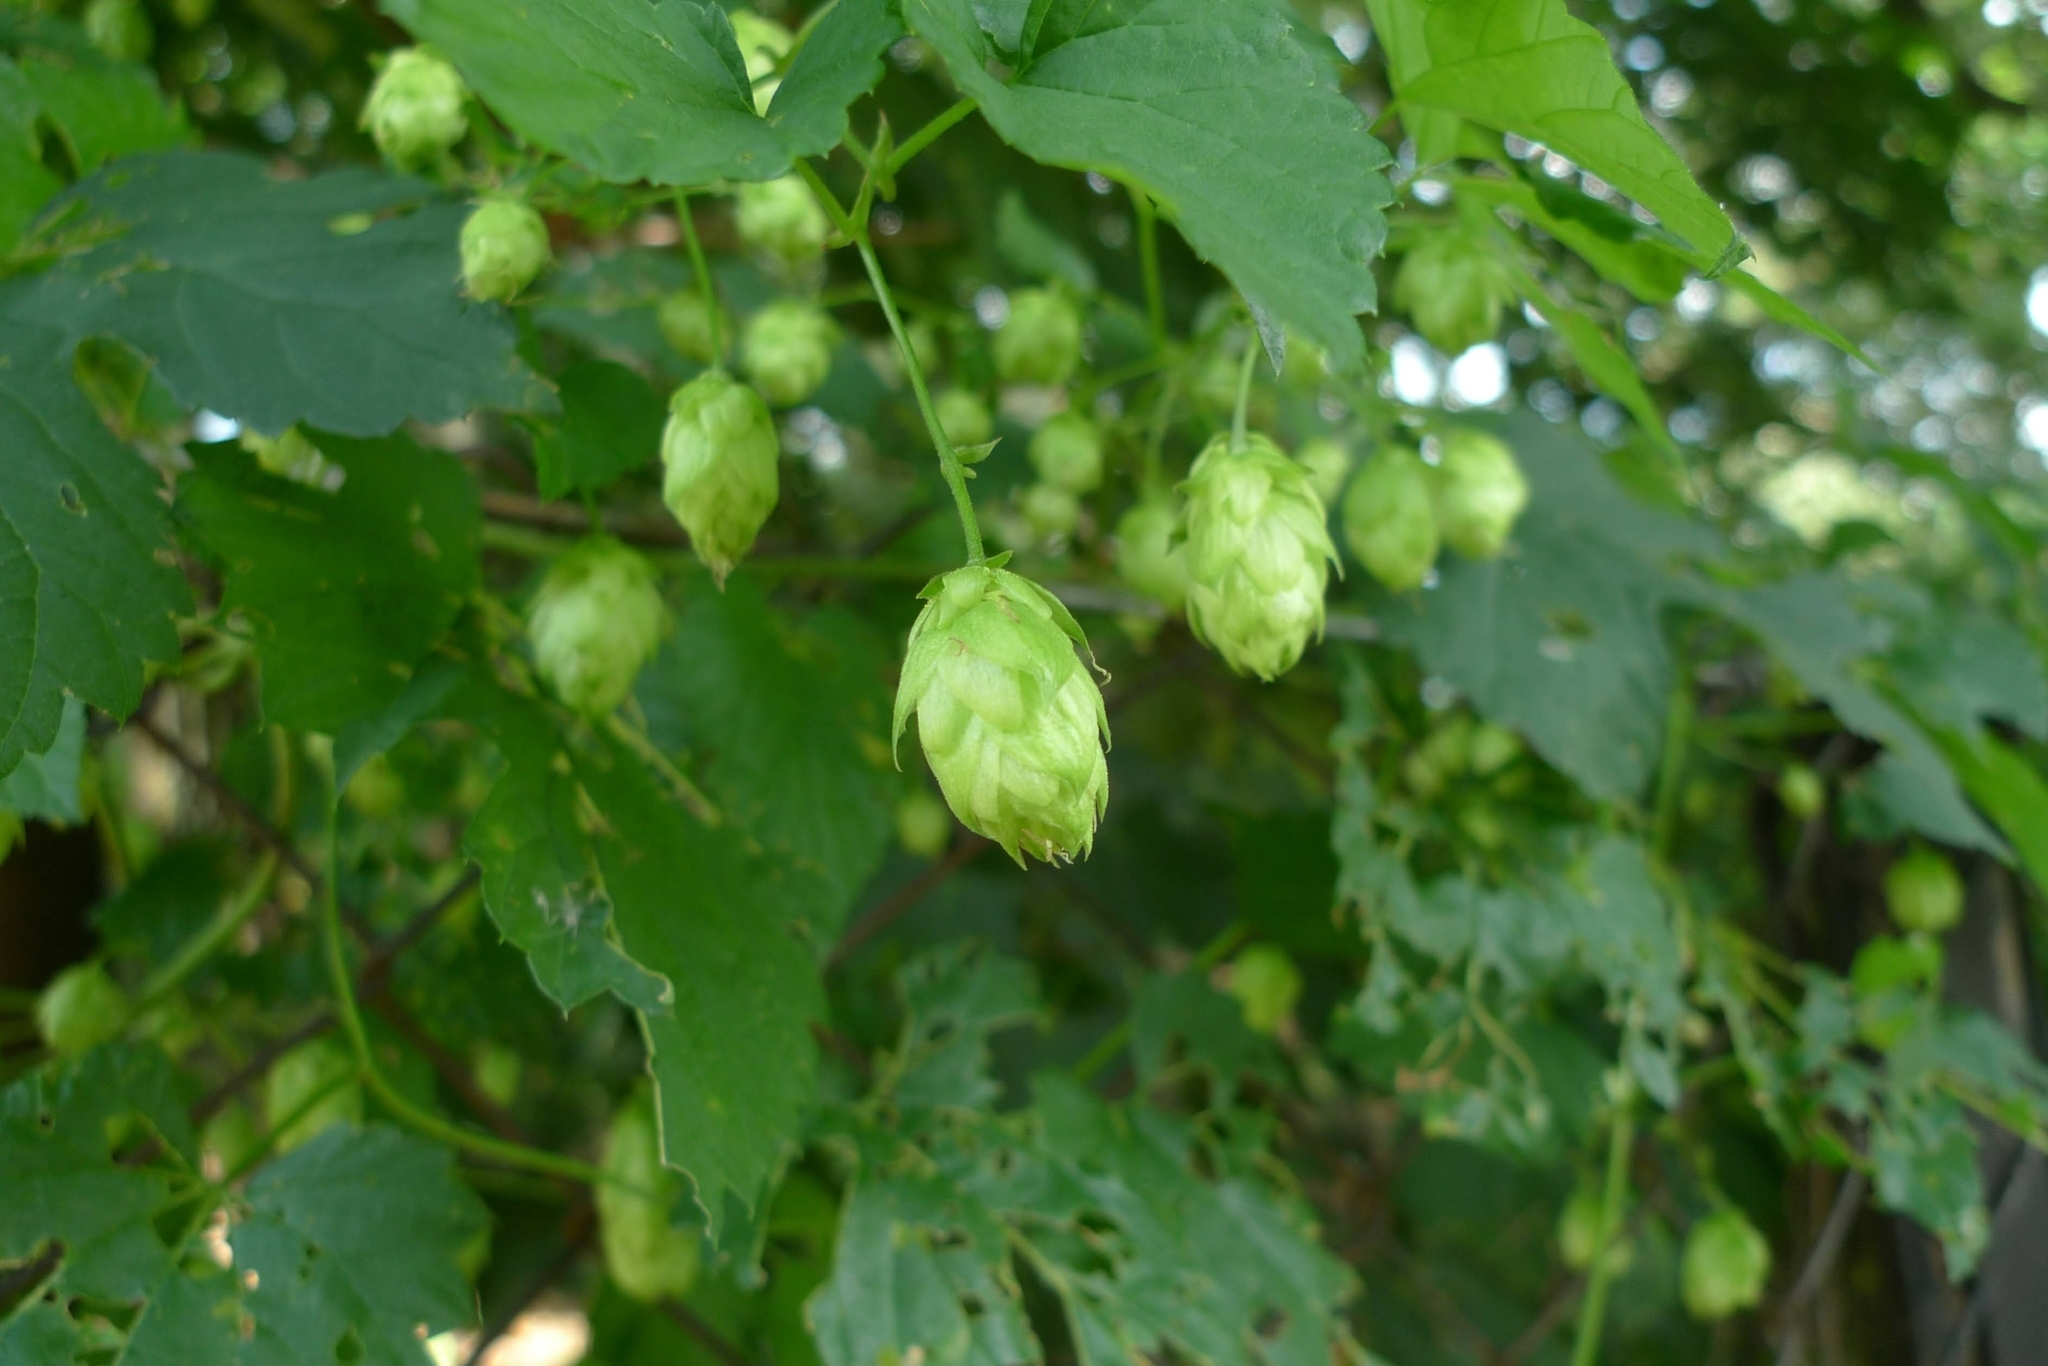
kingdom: Plantae
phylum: Tracheophyta
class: Magnoliopsida
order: Rosales
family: Cannabaceae
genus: Humulus
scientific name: Humulus lupulus
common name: Hop
